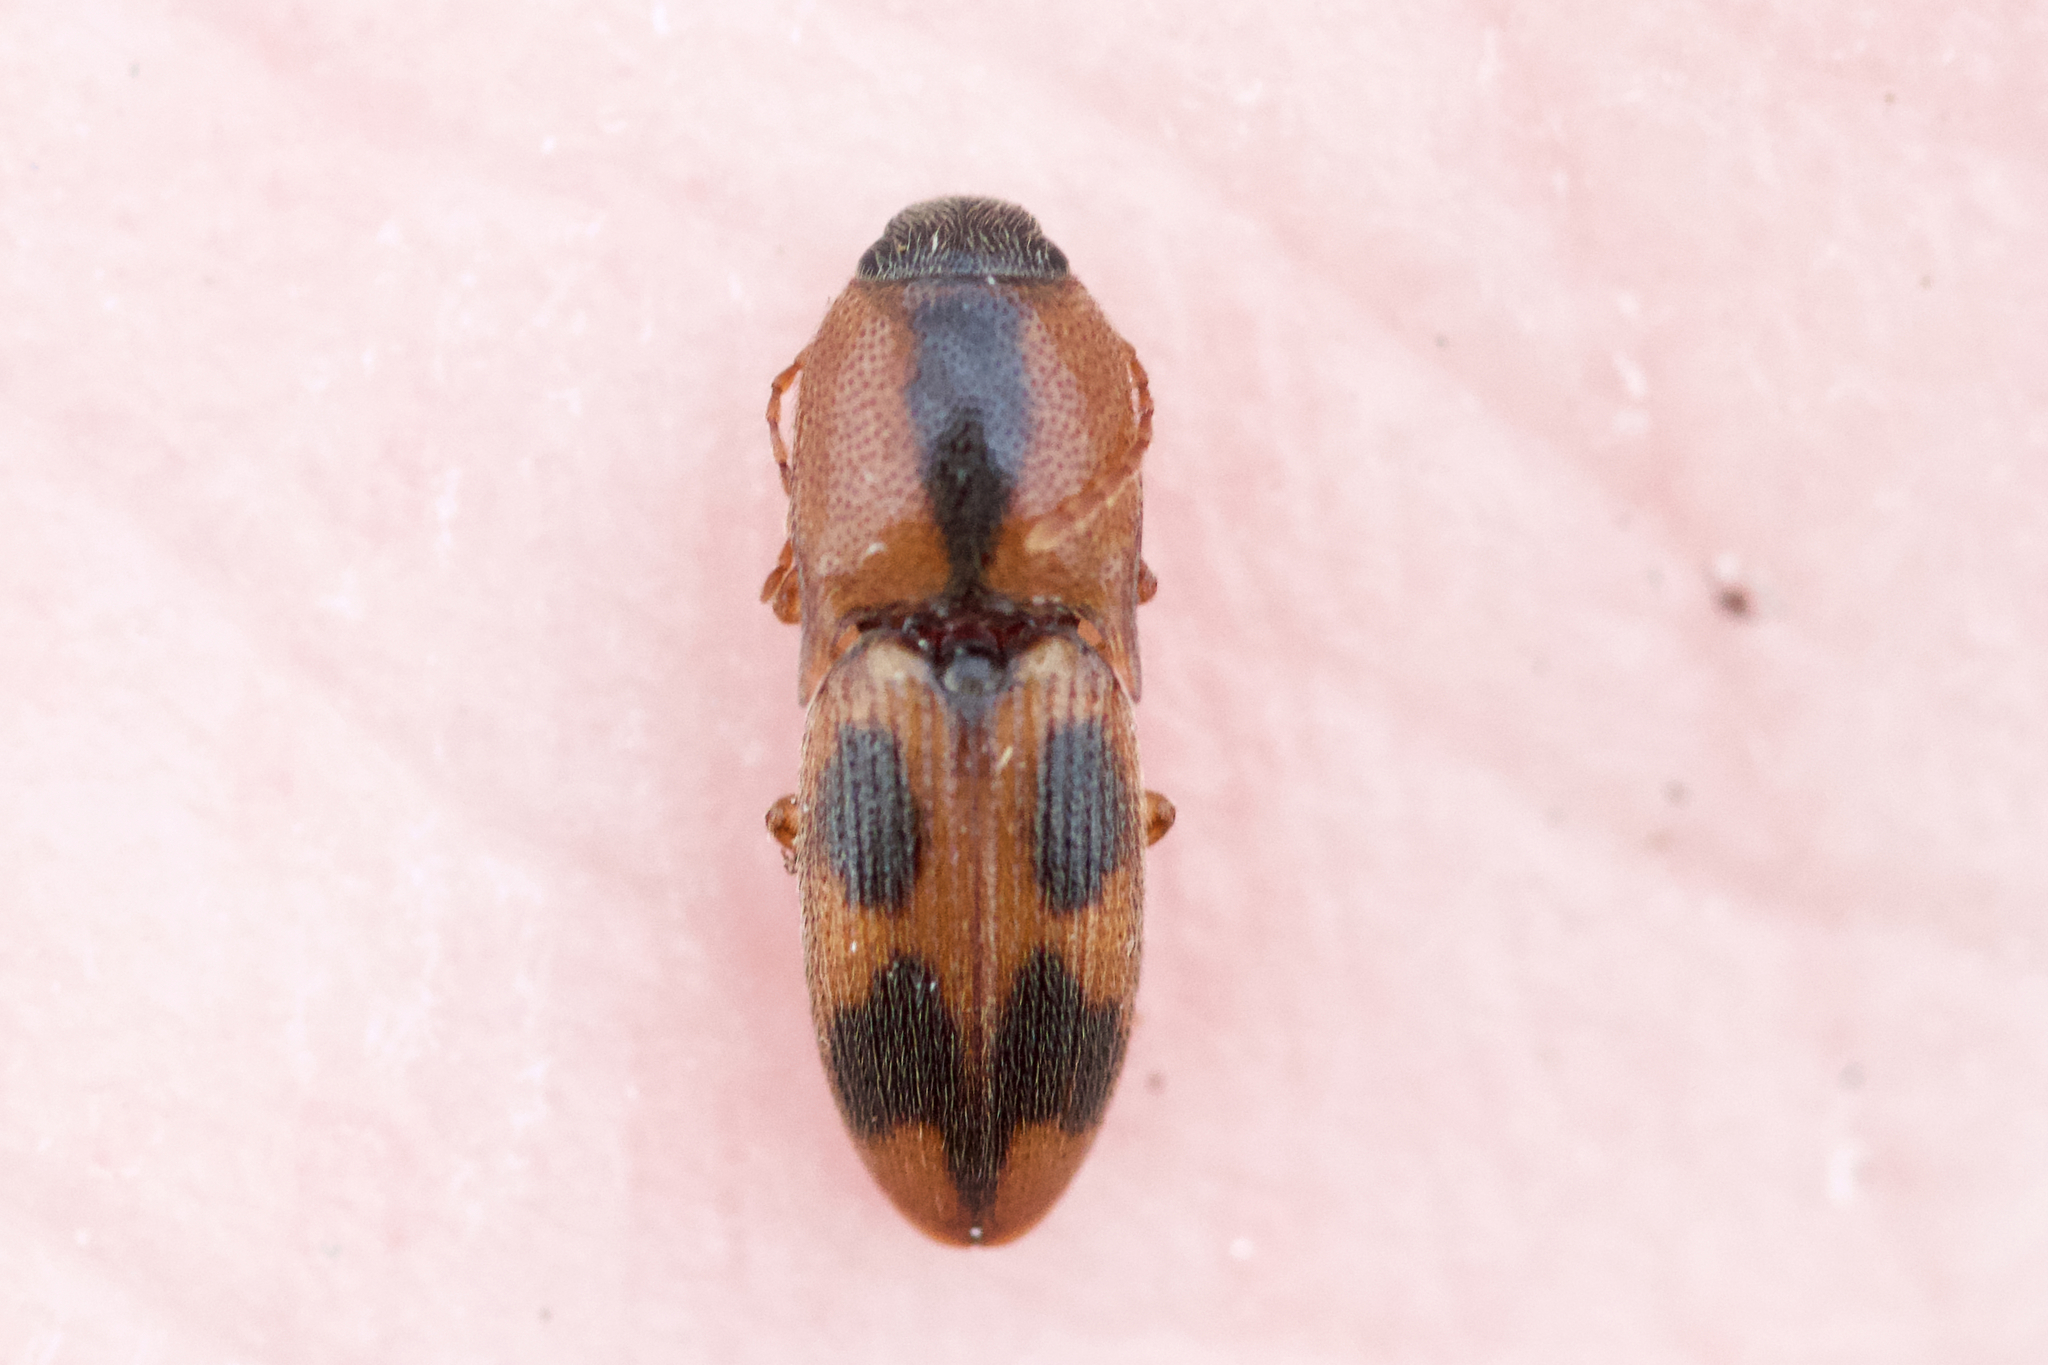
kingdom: Animalia
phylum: Arthropoda
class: Insecta
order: Coleoptera
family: Elateridae
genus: Aeolus
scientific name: Aeolus mellillus
